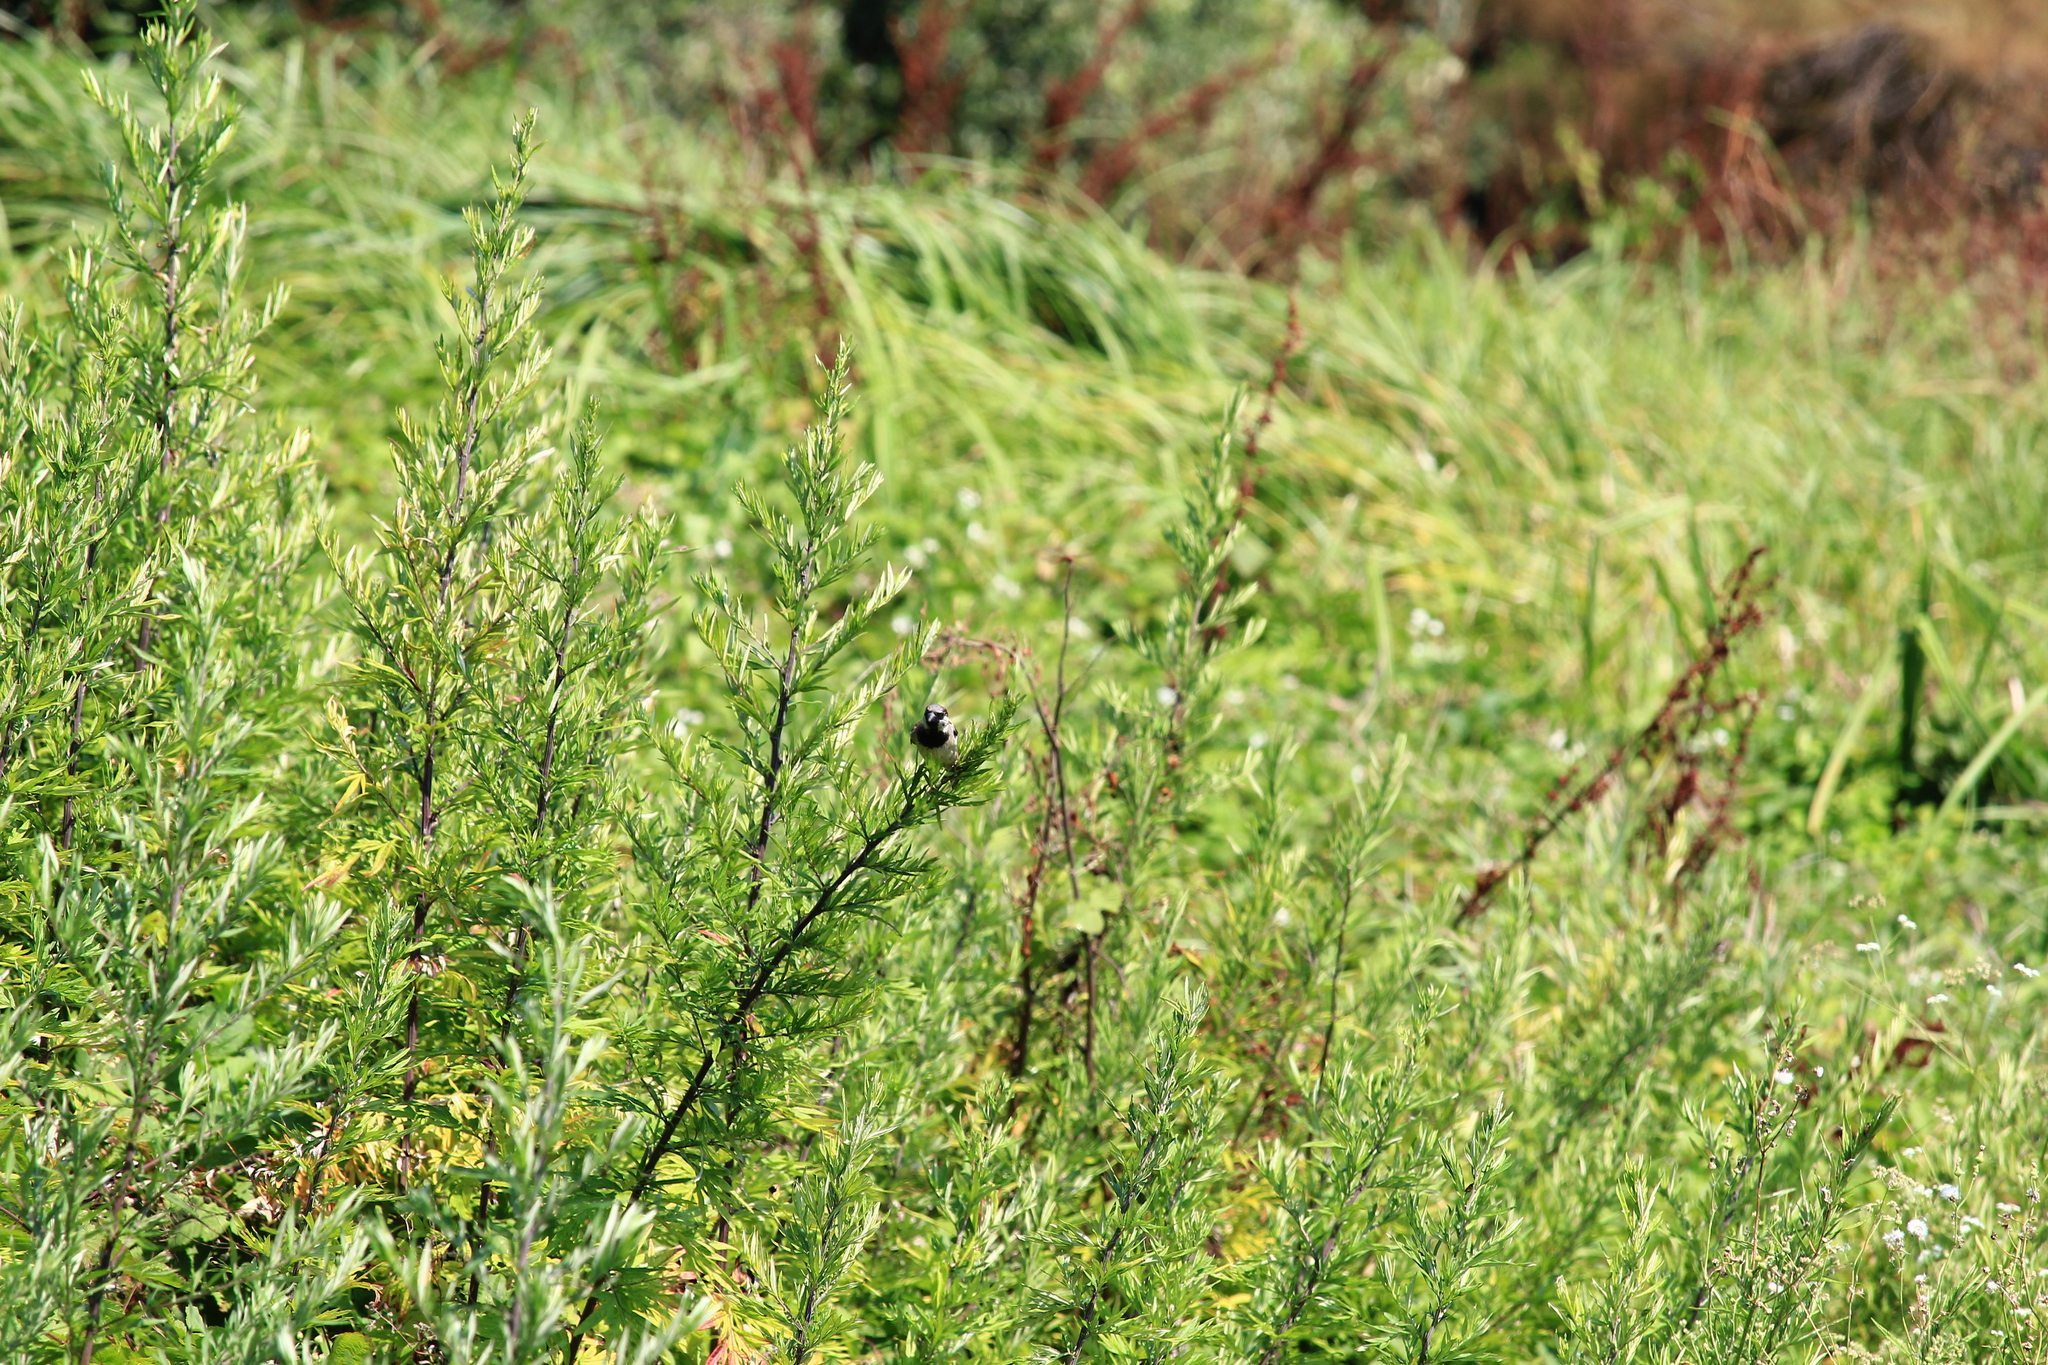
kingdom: Animalia
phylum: Chordata
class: Aves
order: Passeriformes
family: Passeridae
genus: Passer
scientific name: Passer domesticus
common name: House sparrow
